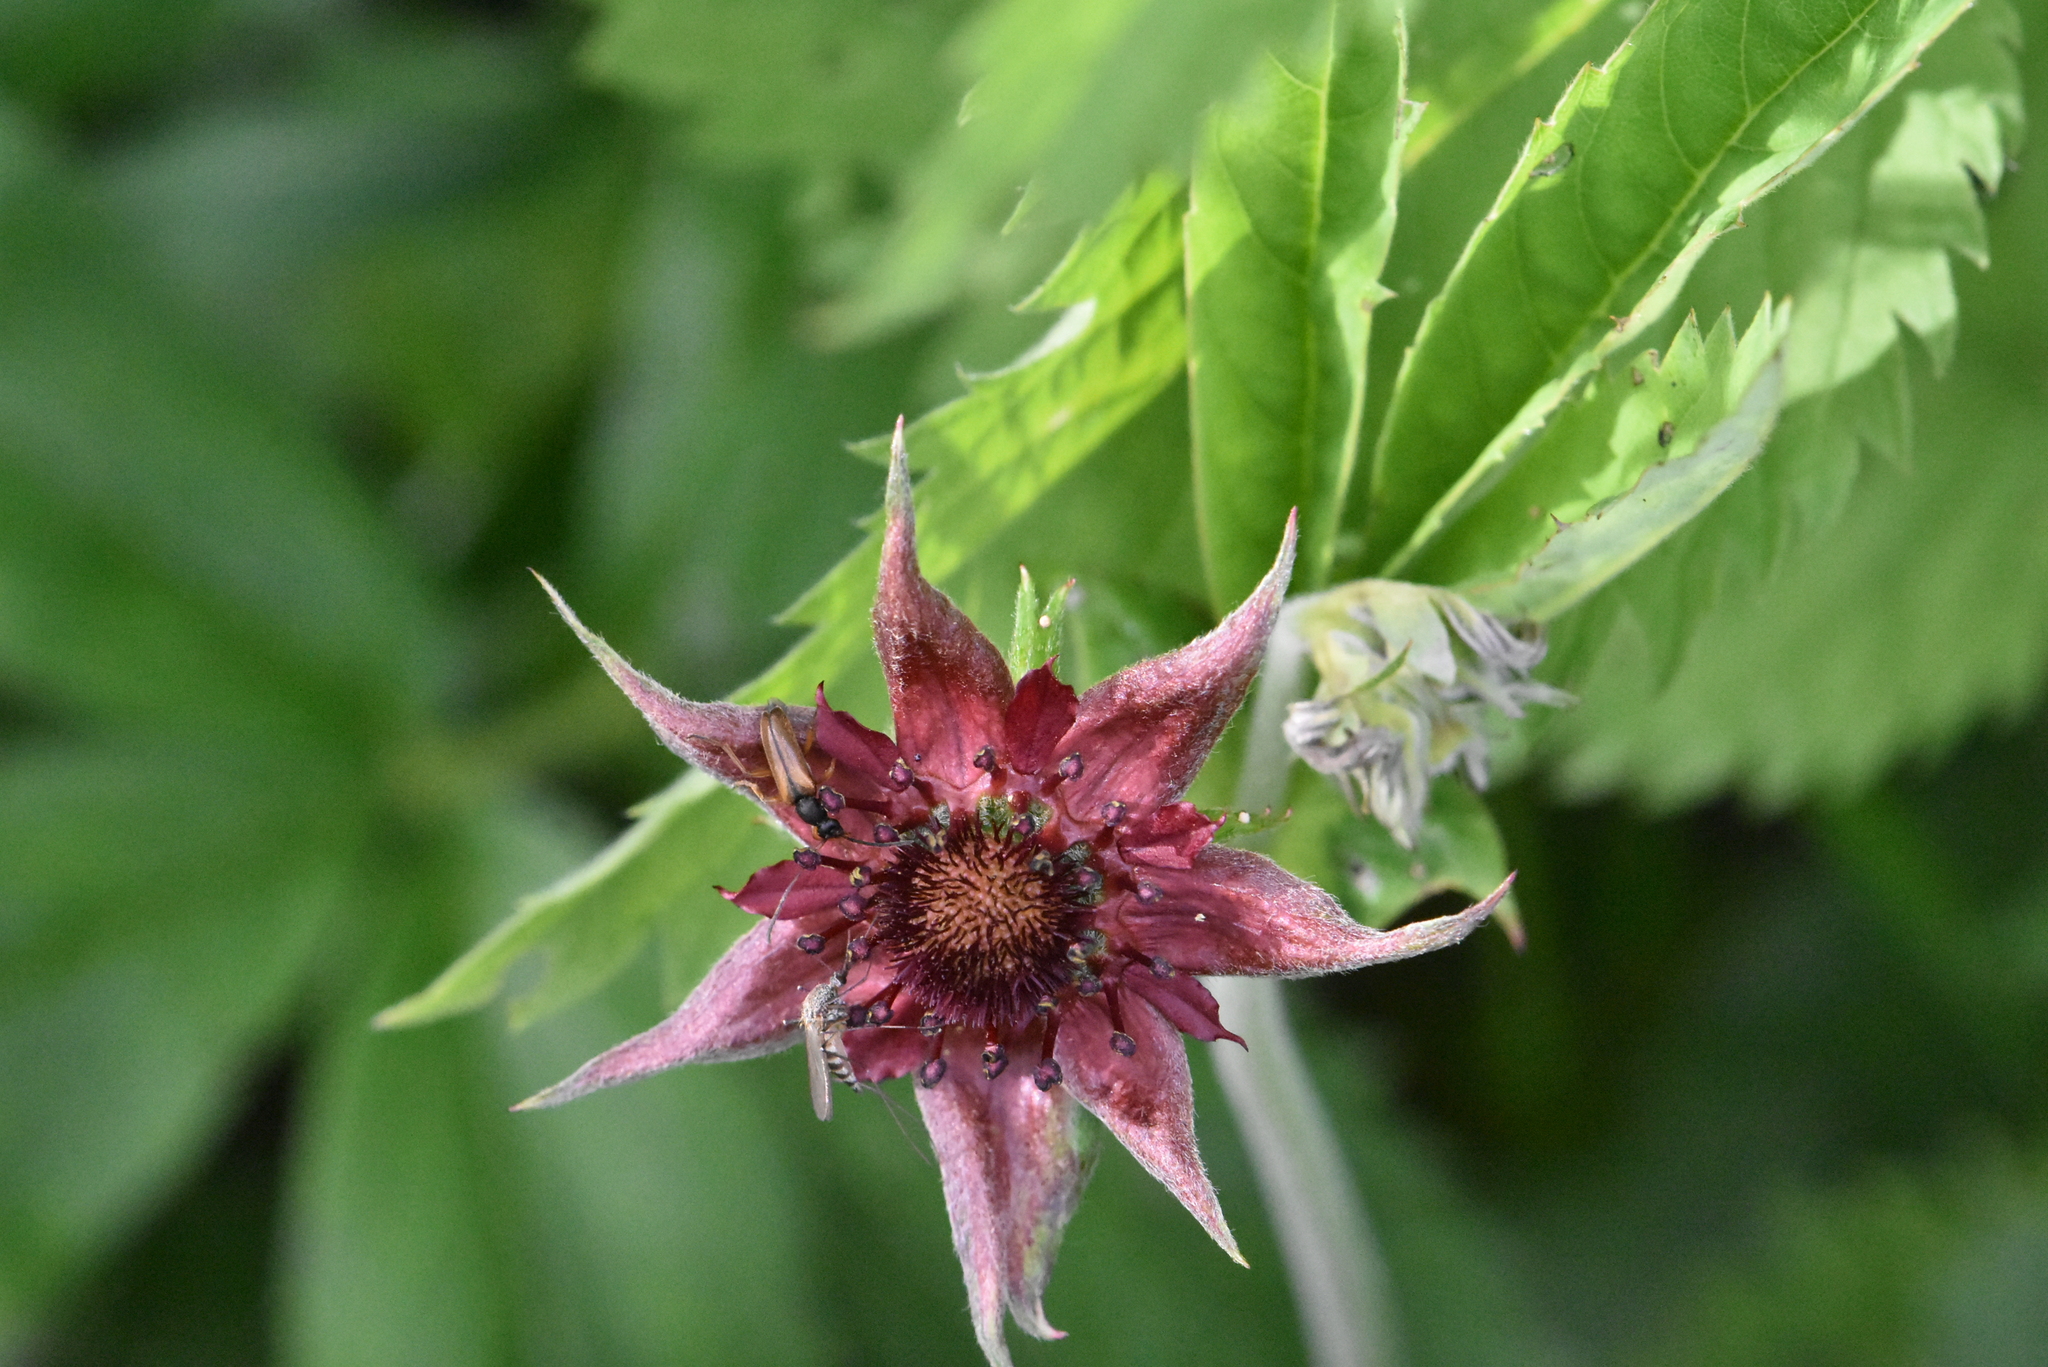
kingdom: Plantae
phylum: Tracheophyta
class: Magnoliopsida
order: Rosales
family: Rosaceae
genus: Comarum
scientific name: Comarum palustre
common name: Marsh cinquefoil
